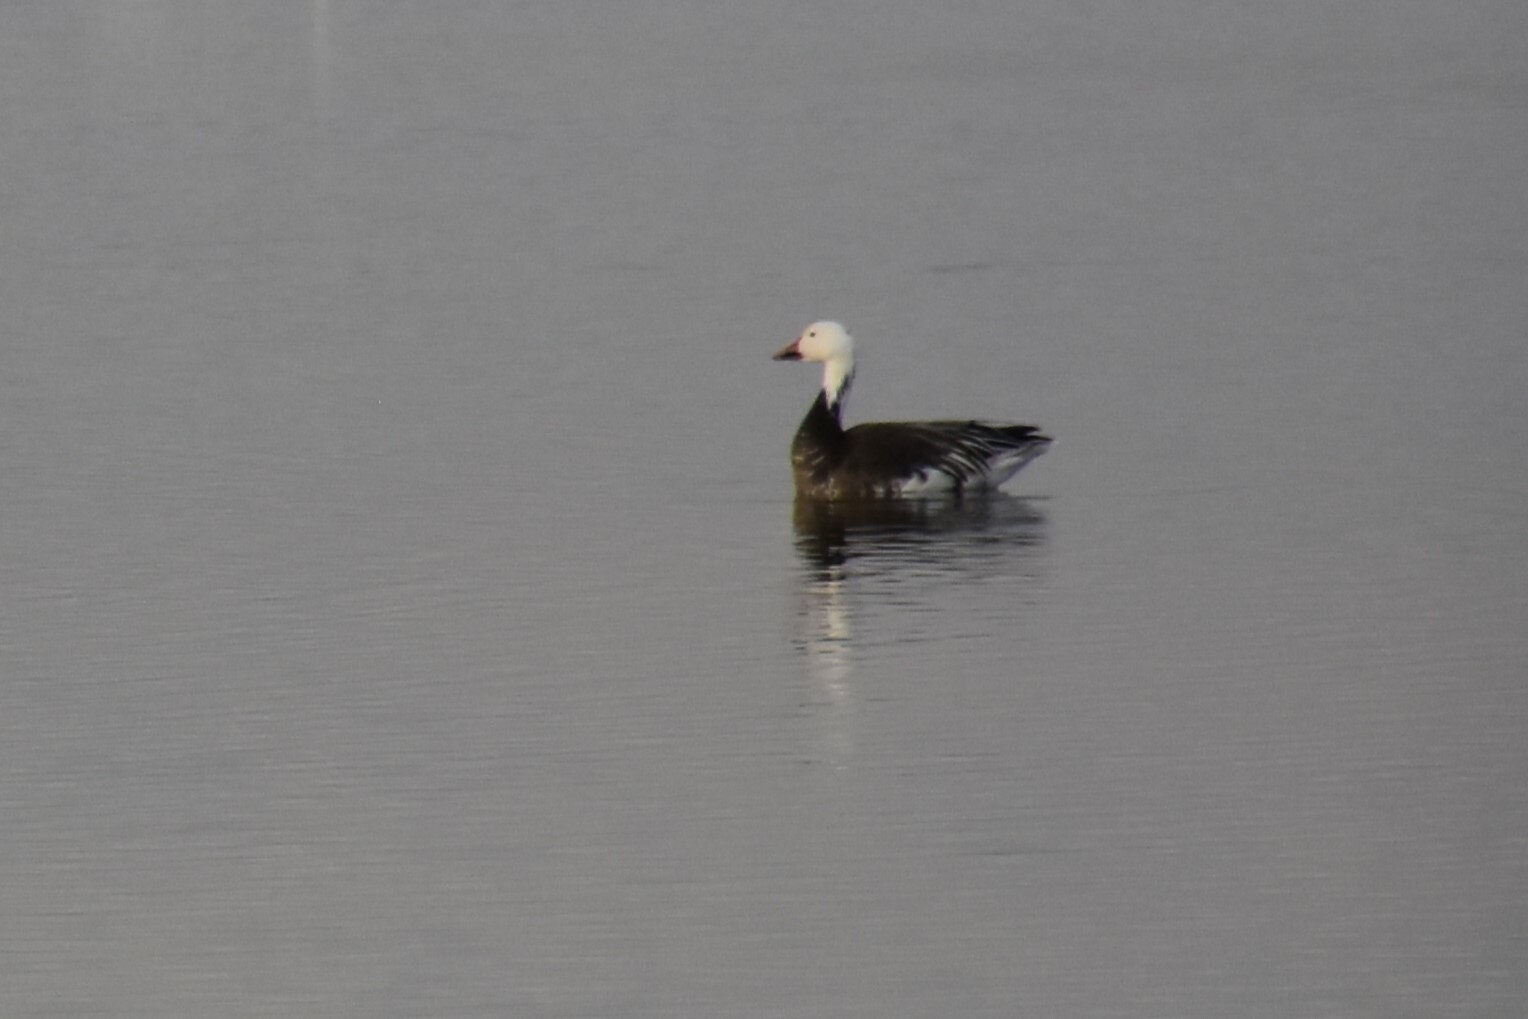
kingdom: Animalia
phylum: Chordata
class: Aves
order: Anseriformes
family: Anatidae
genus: Anser
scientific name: Anser caerulescens
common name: Snow goose
